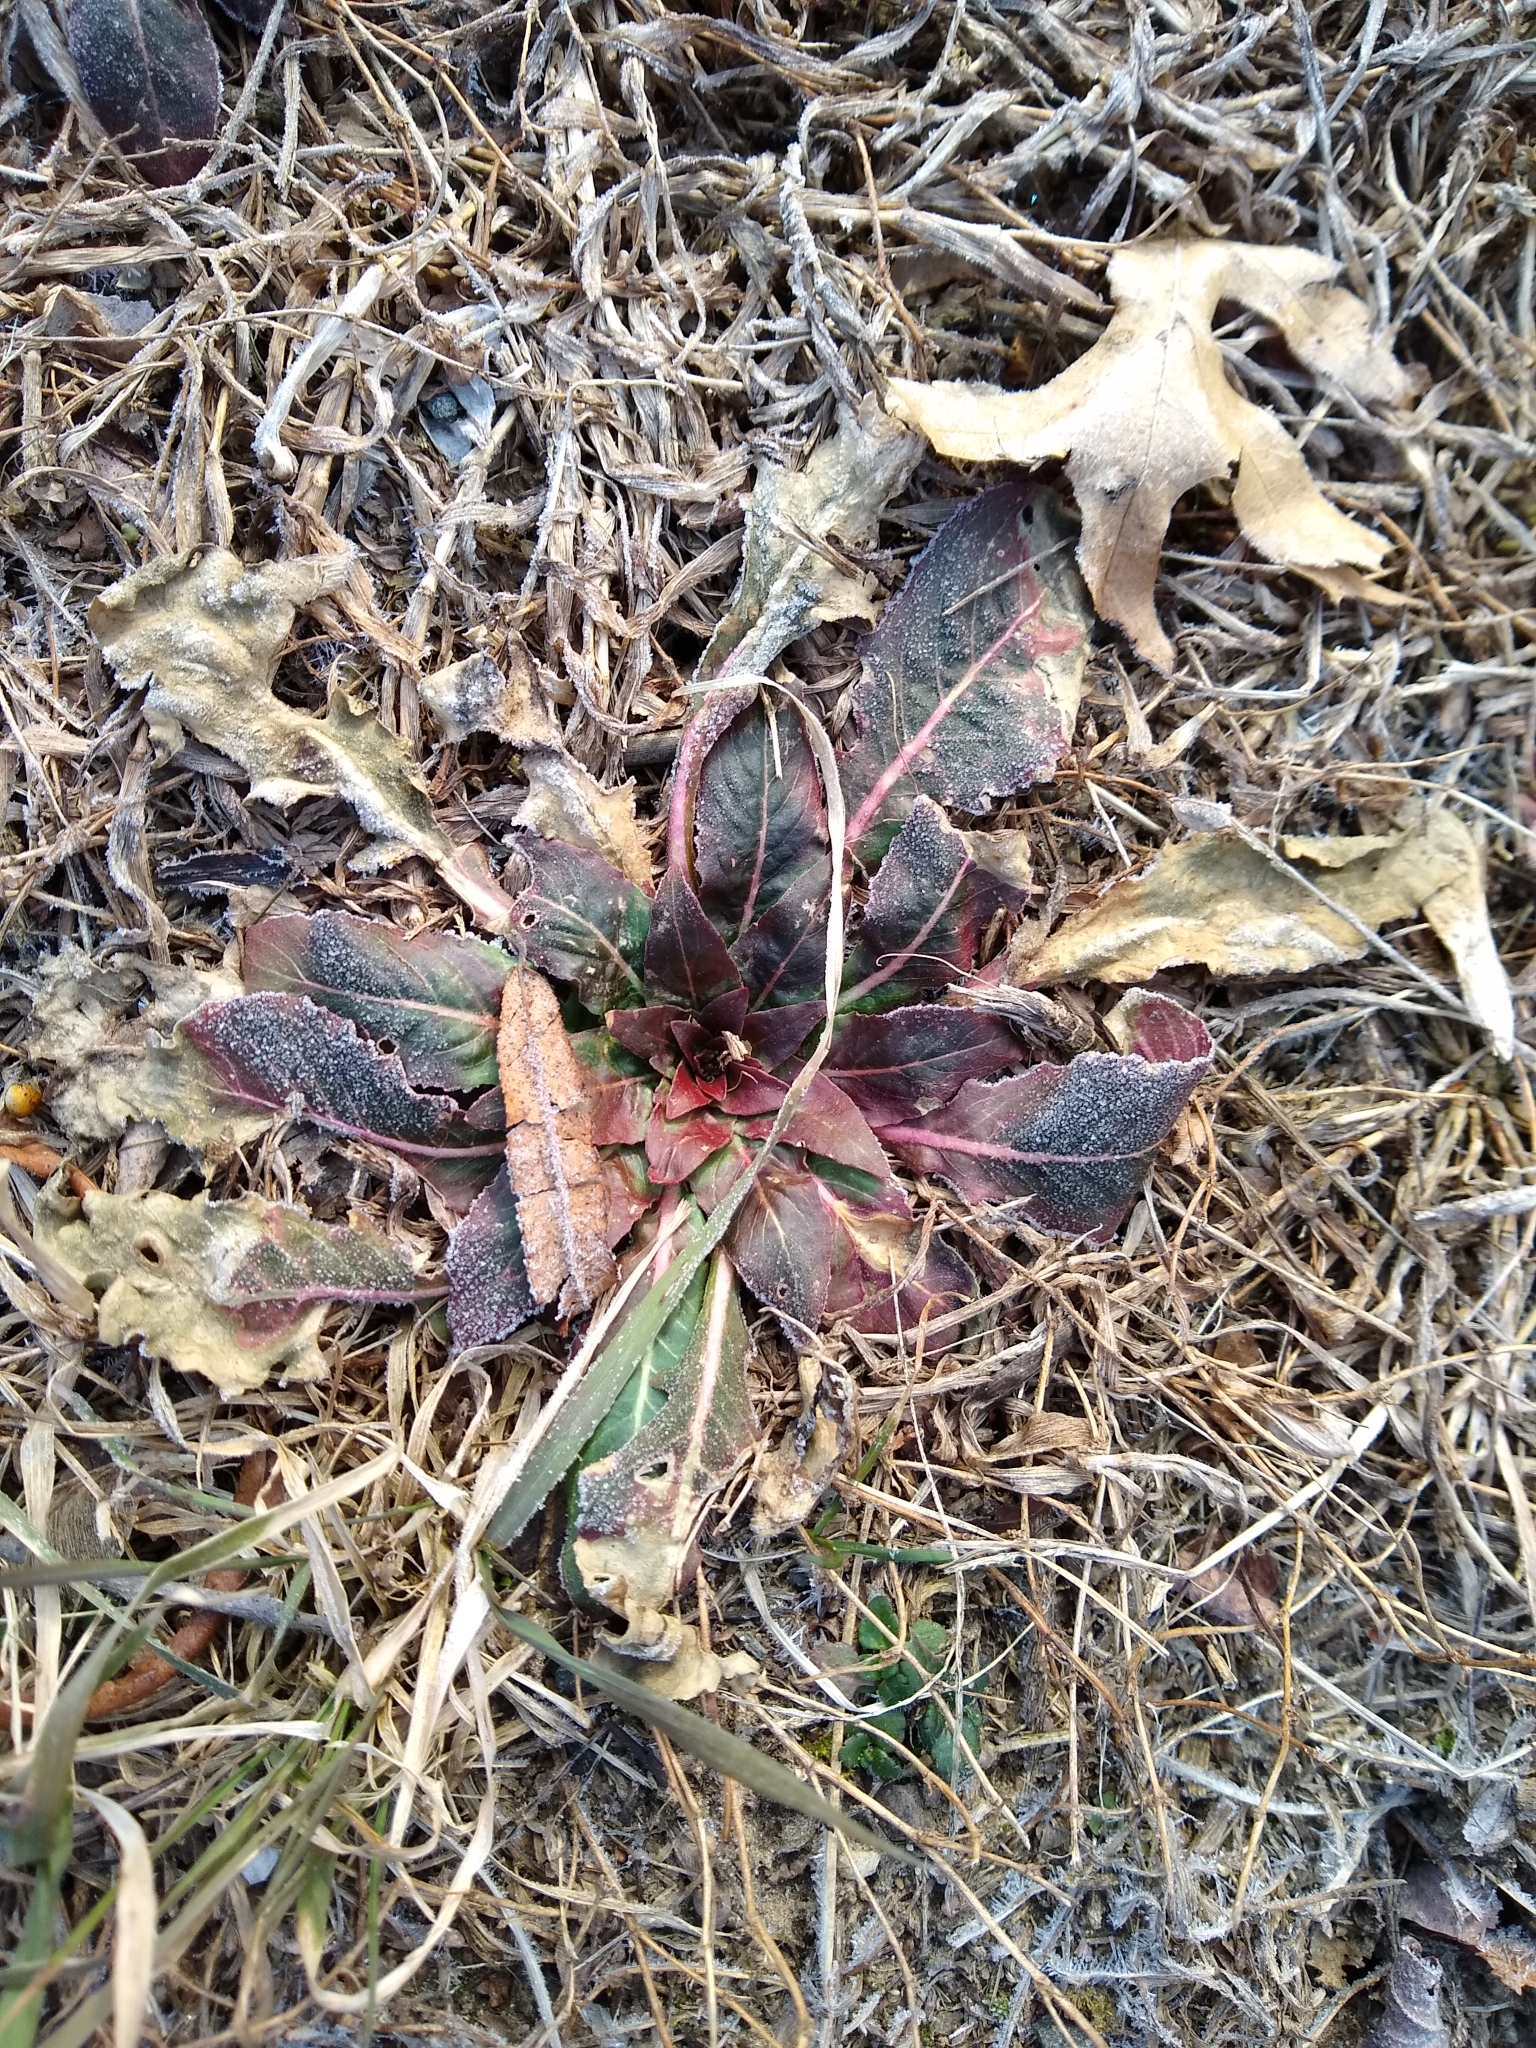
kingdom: Plantae
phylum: Tracheophyta
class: Magnoliopsida
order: Myrtales
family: Onagraceae
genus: Oenothera
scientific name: Oenothera
